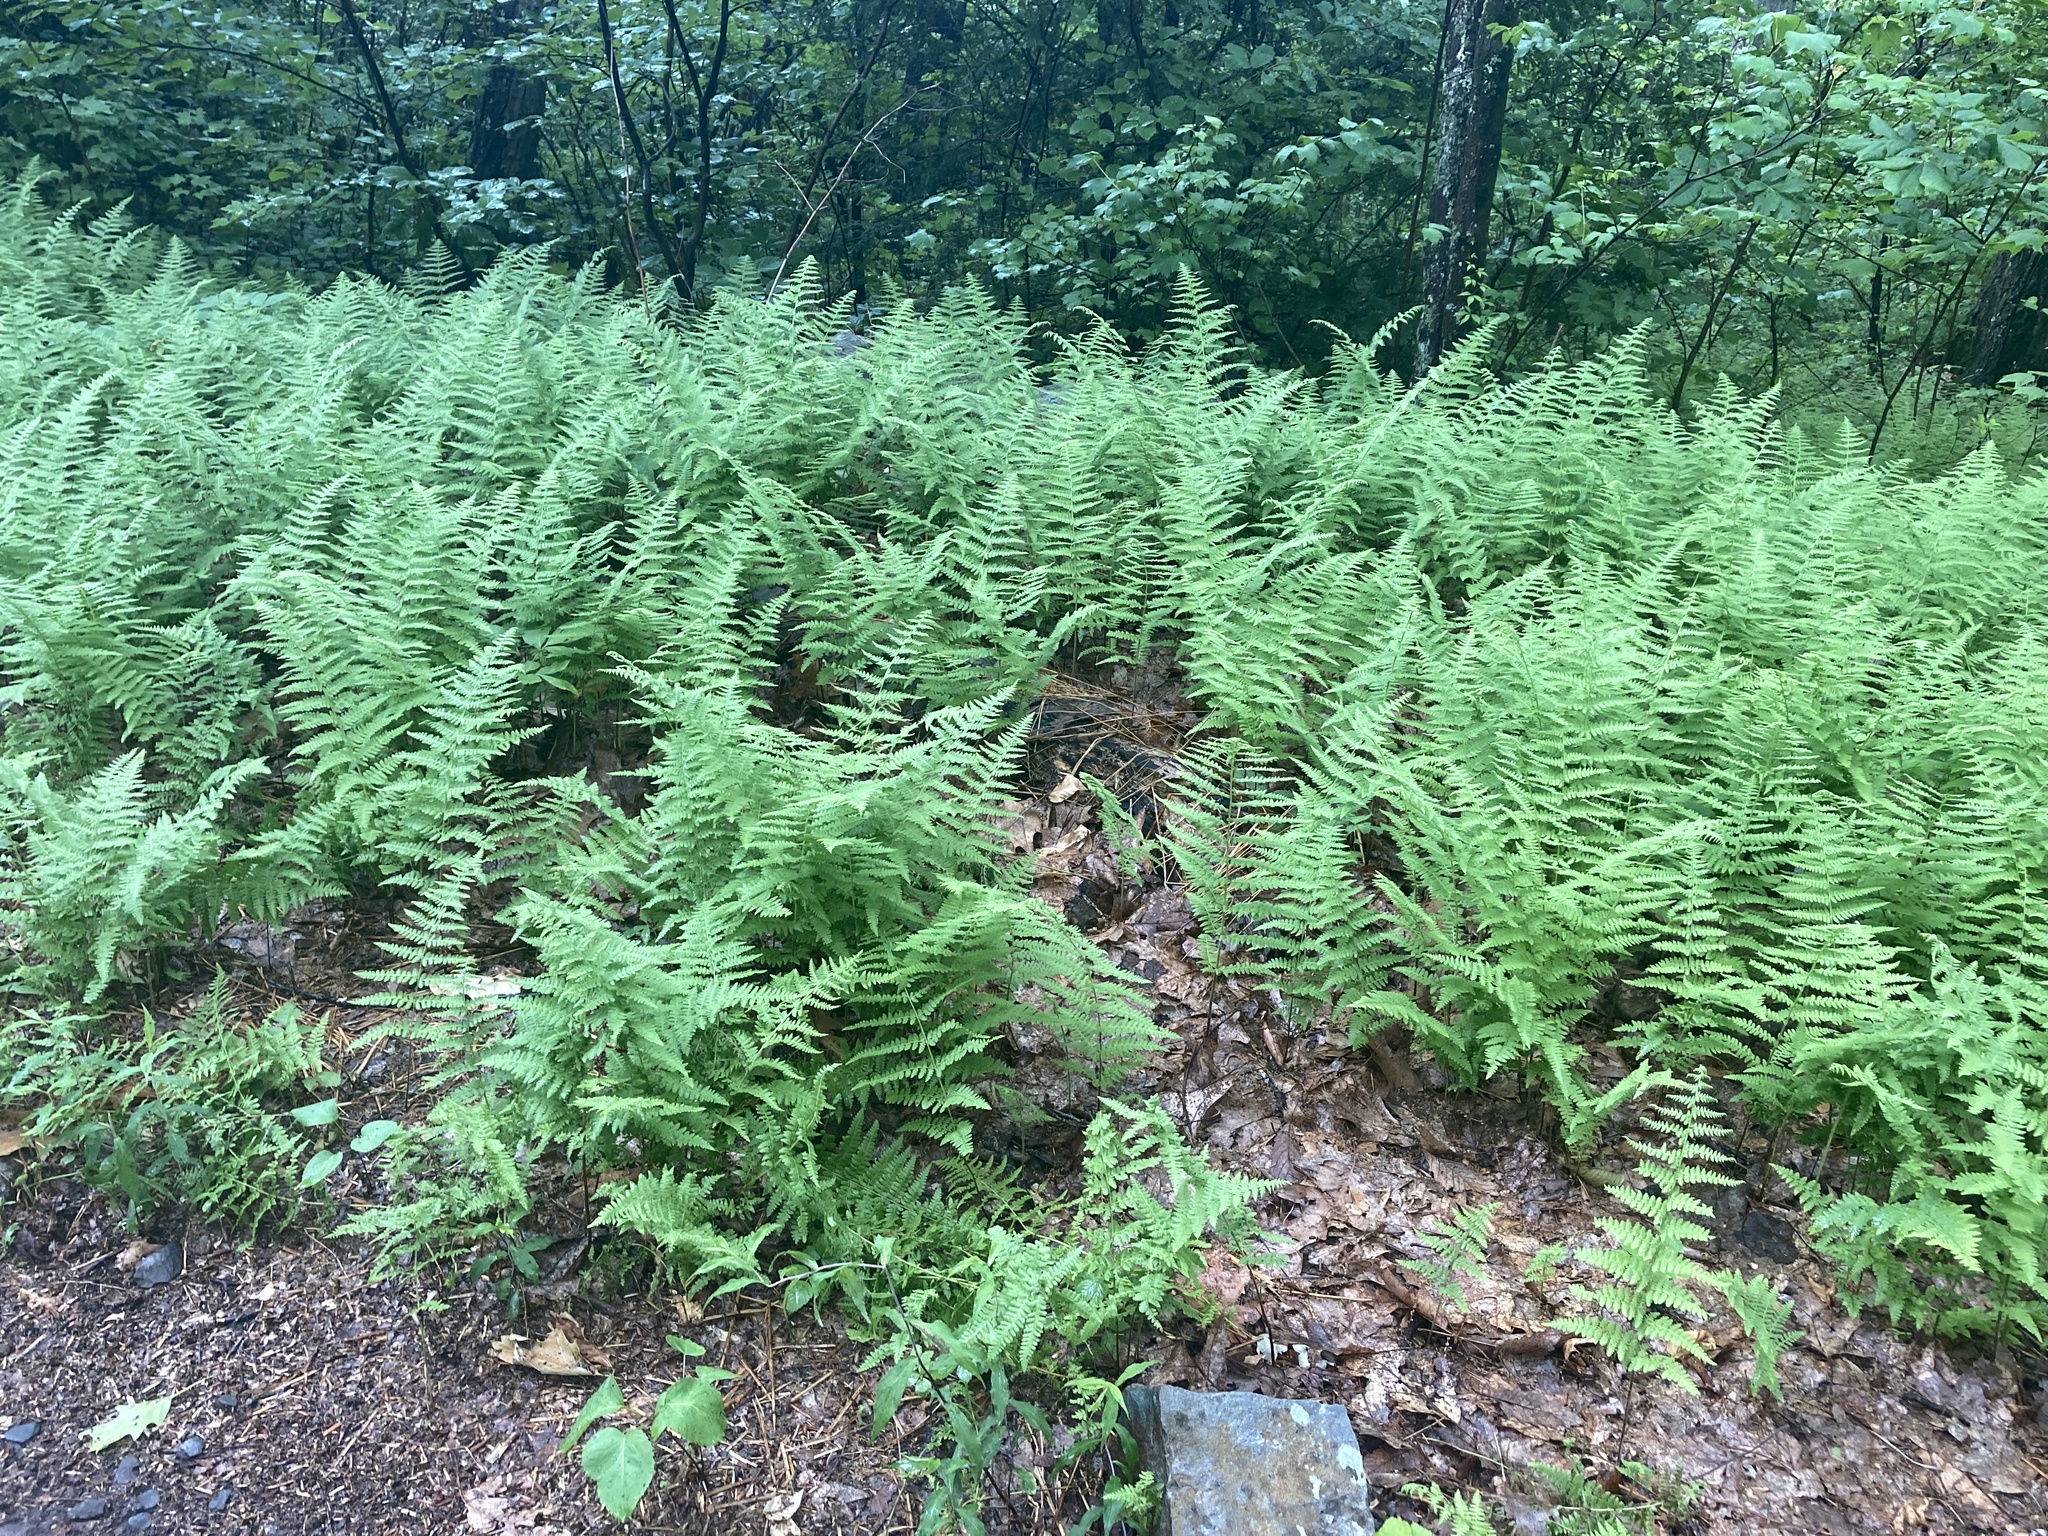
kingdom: Plantae
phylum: Tracheophyta
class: Polypodiopsida
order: Polypodiales
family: Dennstaedtiaceae
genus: Sitobolium
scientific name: Sitobolium punctilobum
